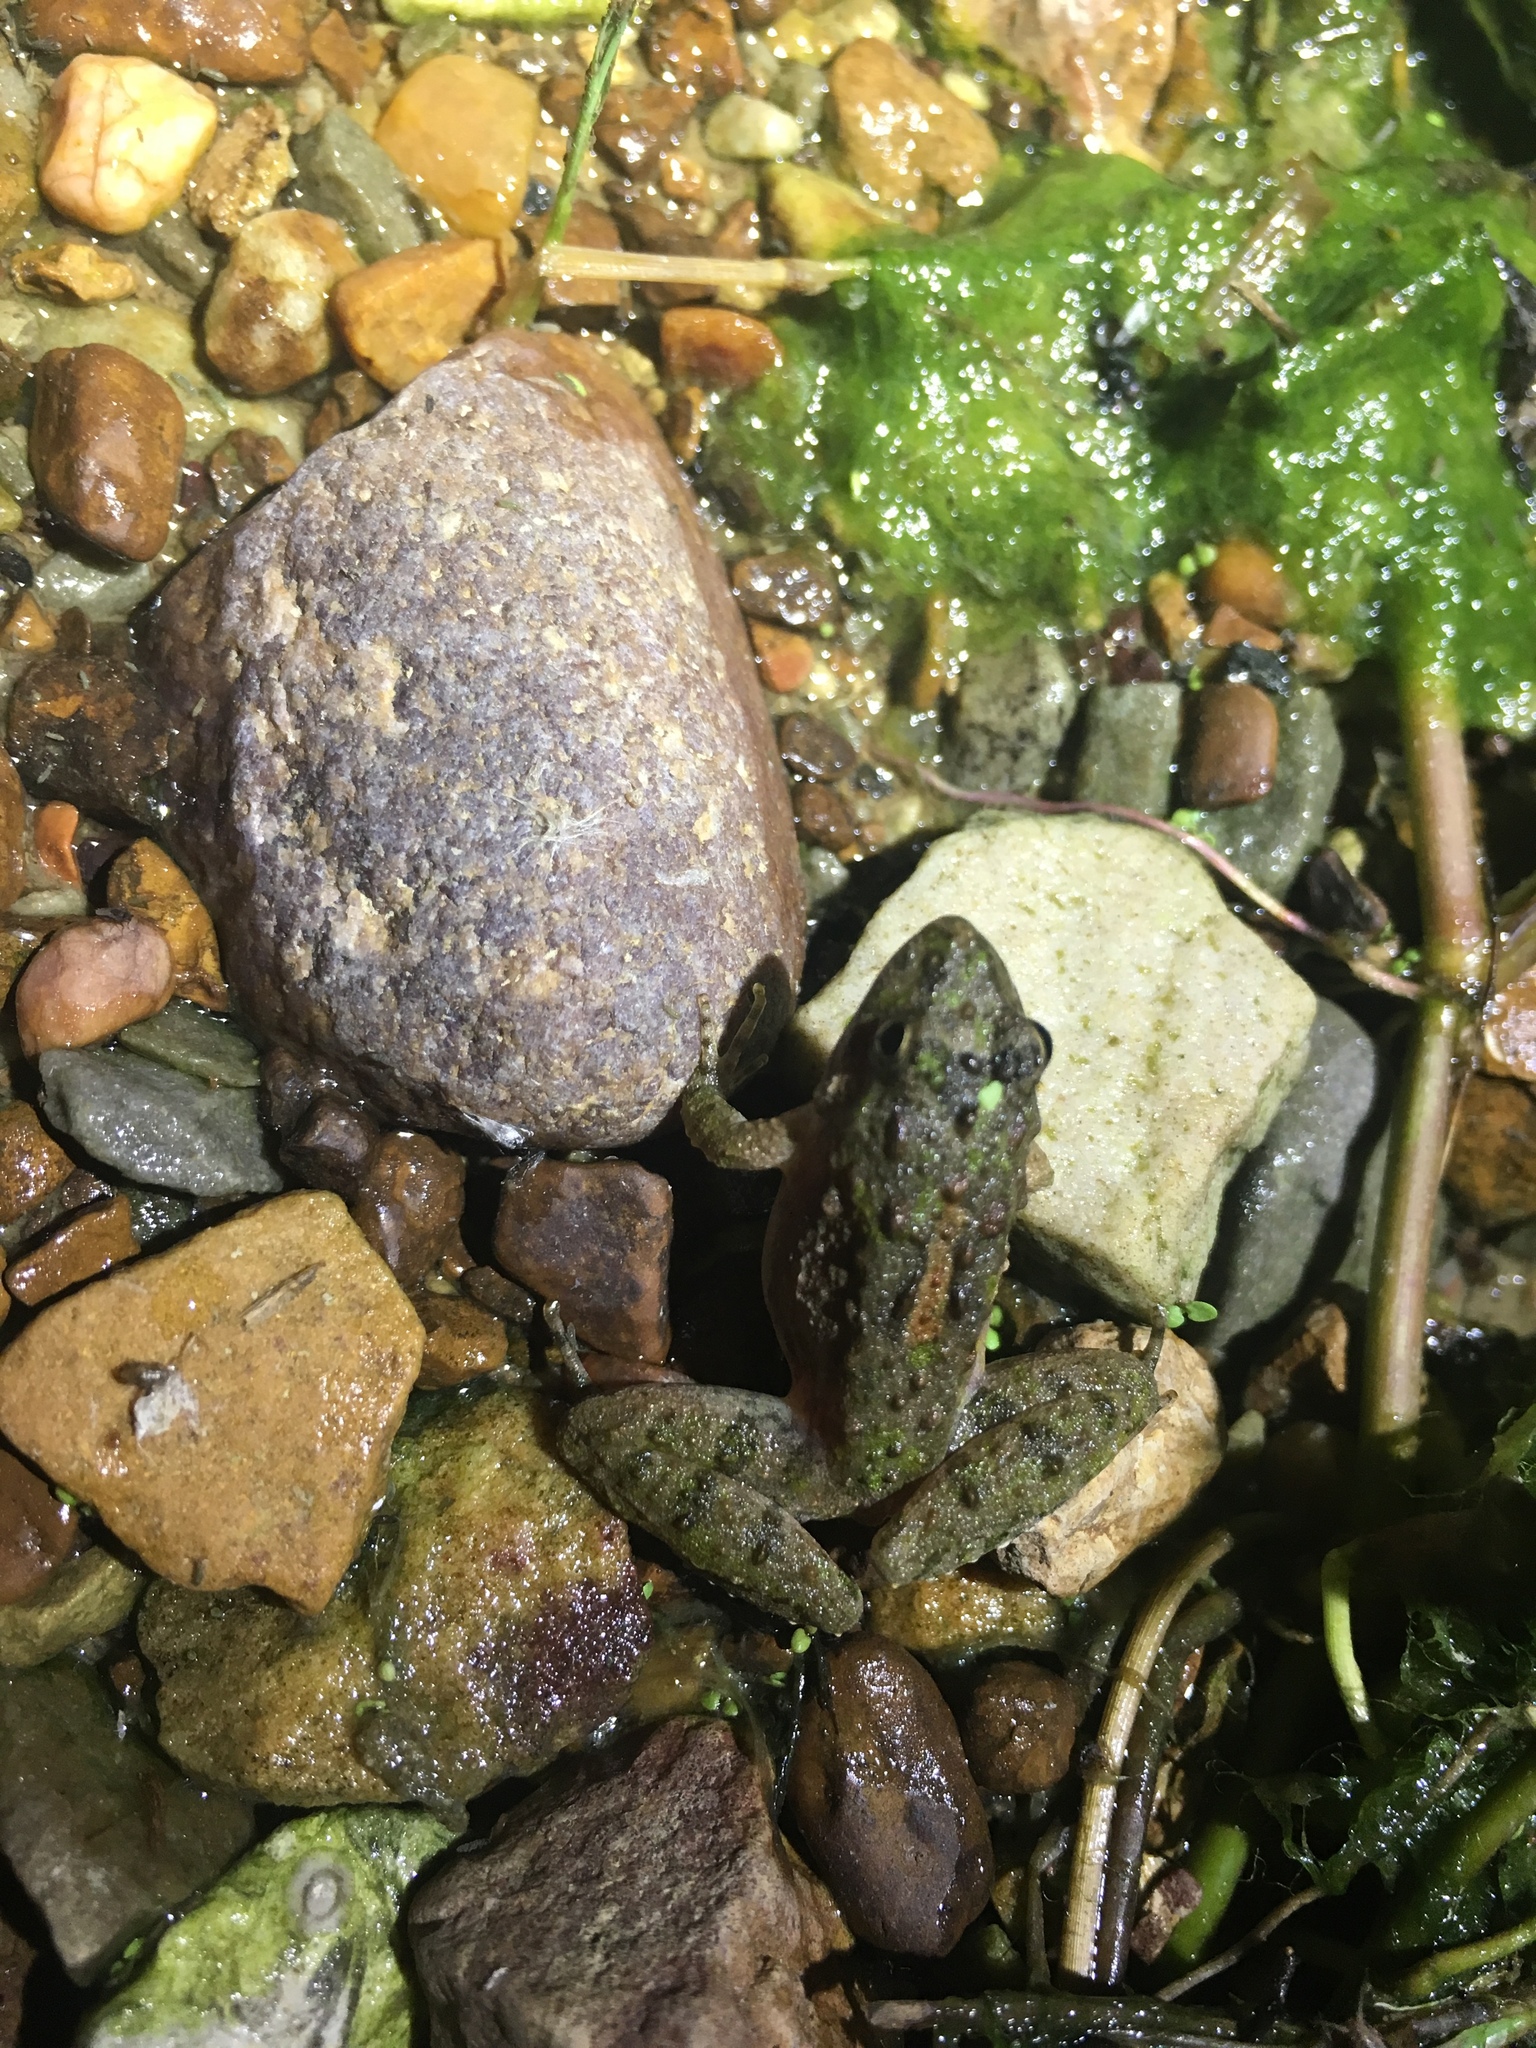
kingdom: Animalia
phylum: Chordata
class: Amphibia
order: Anura
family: Hylidae
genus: Acris
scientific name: Acris blanchardi
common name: Blanchard's cricket frog
